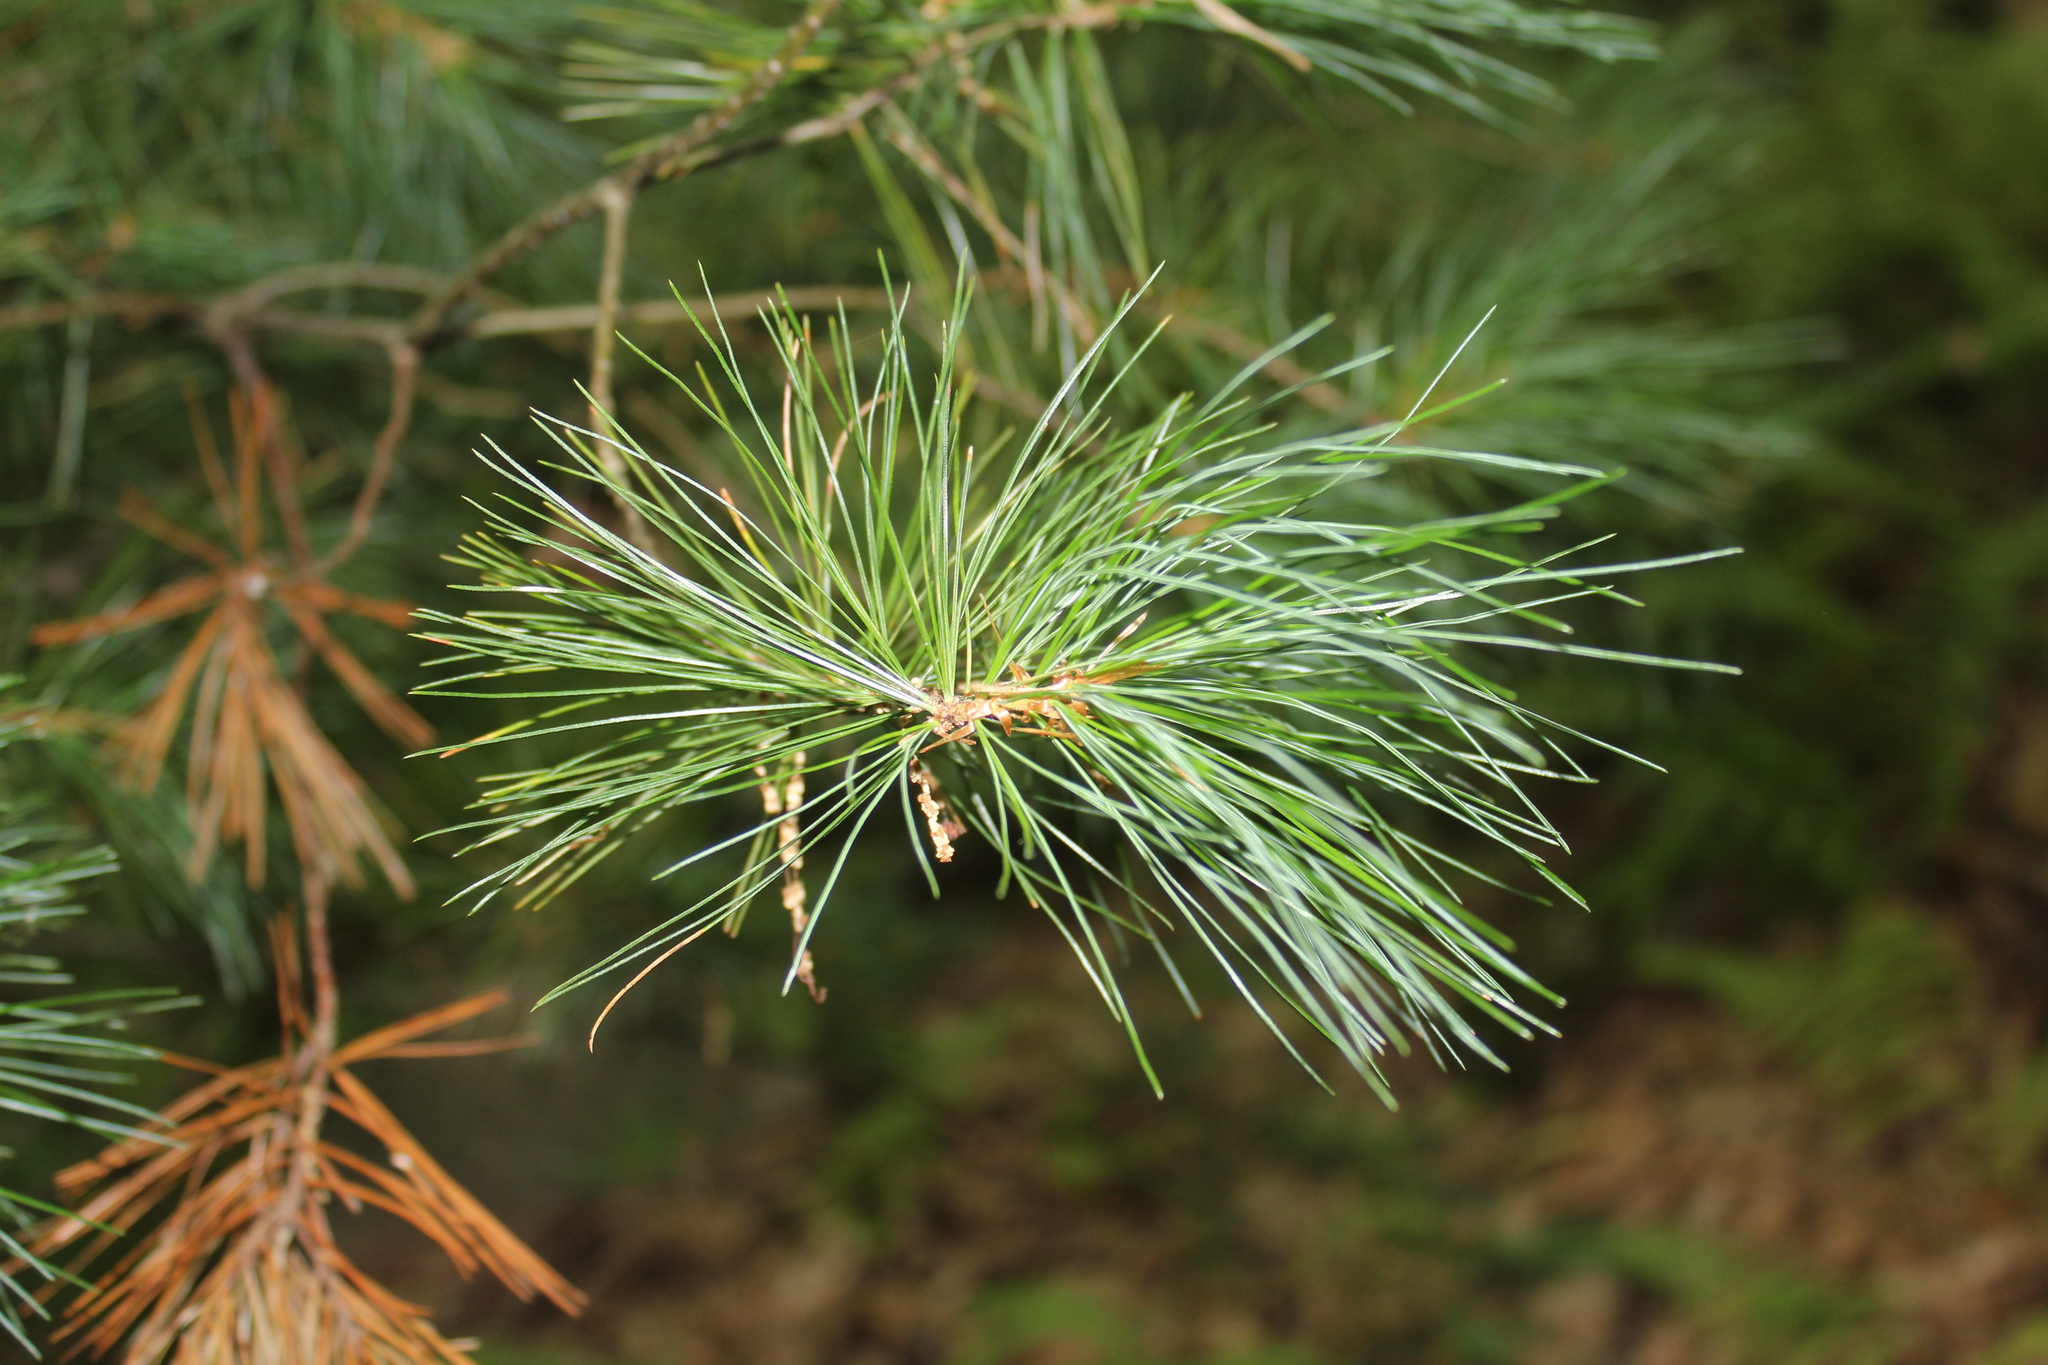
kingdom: Plantae
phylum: Tracheophyta
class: Pinopsida
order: Pinales
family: Pinaceae
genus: Pinus
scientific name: Pinus strobus
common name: Weymouth pine
